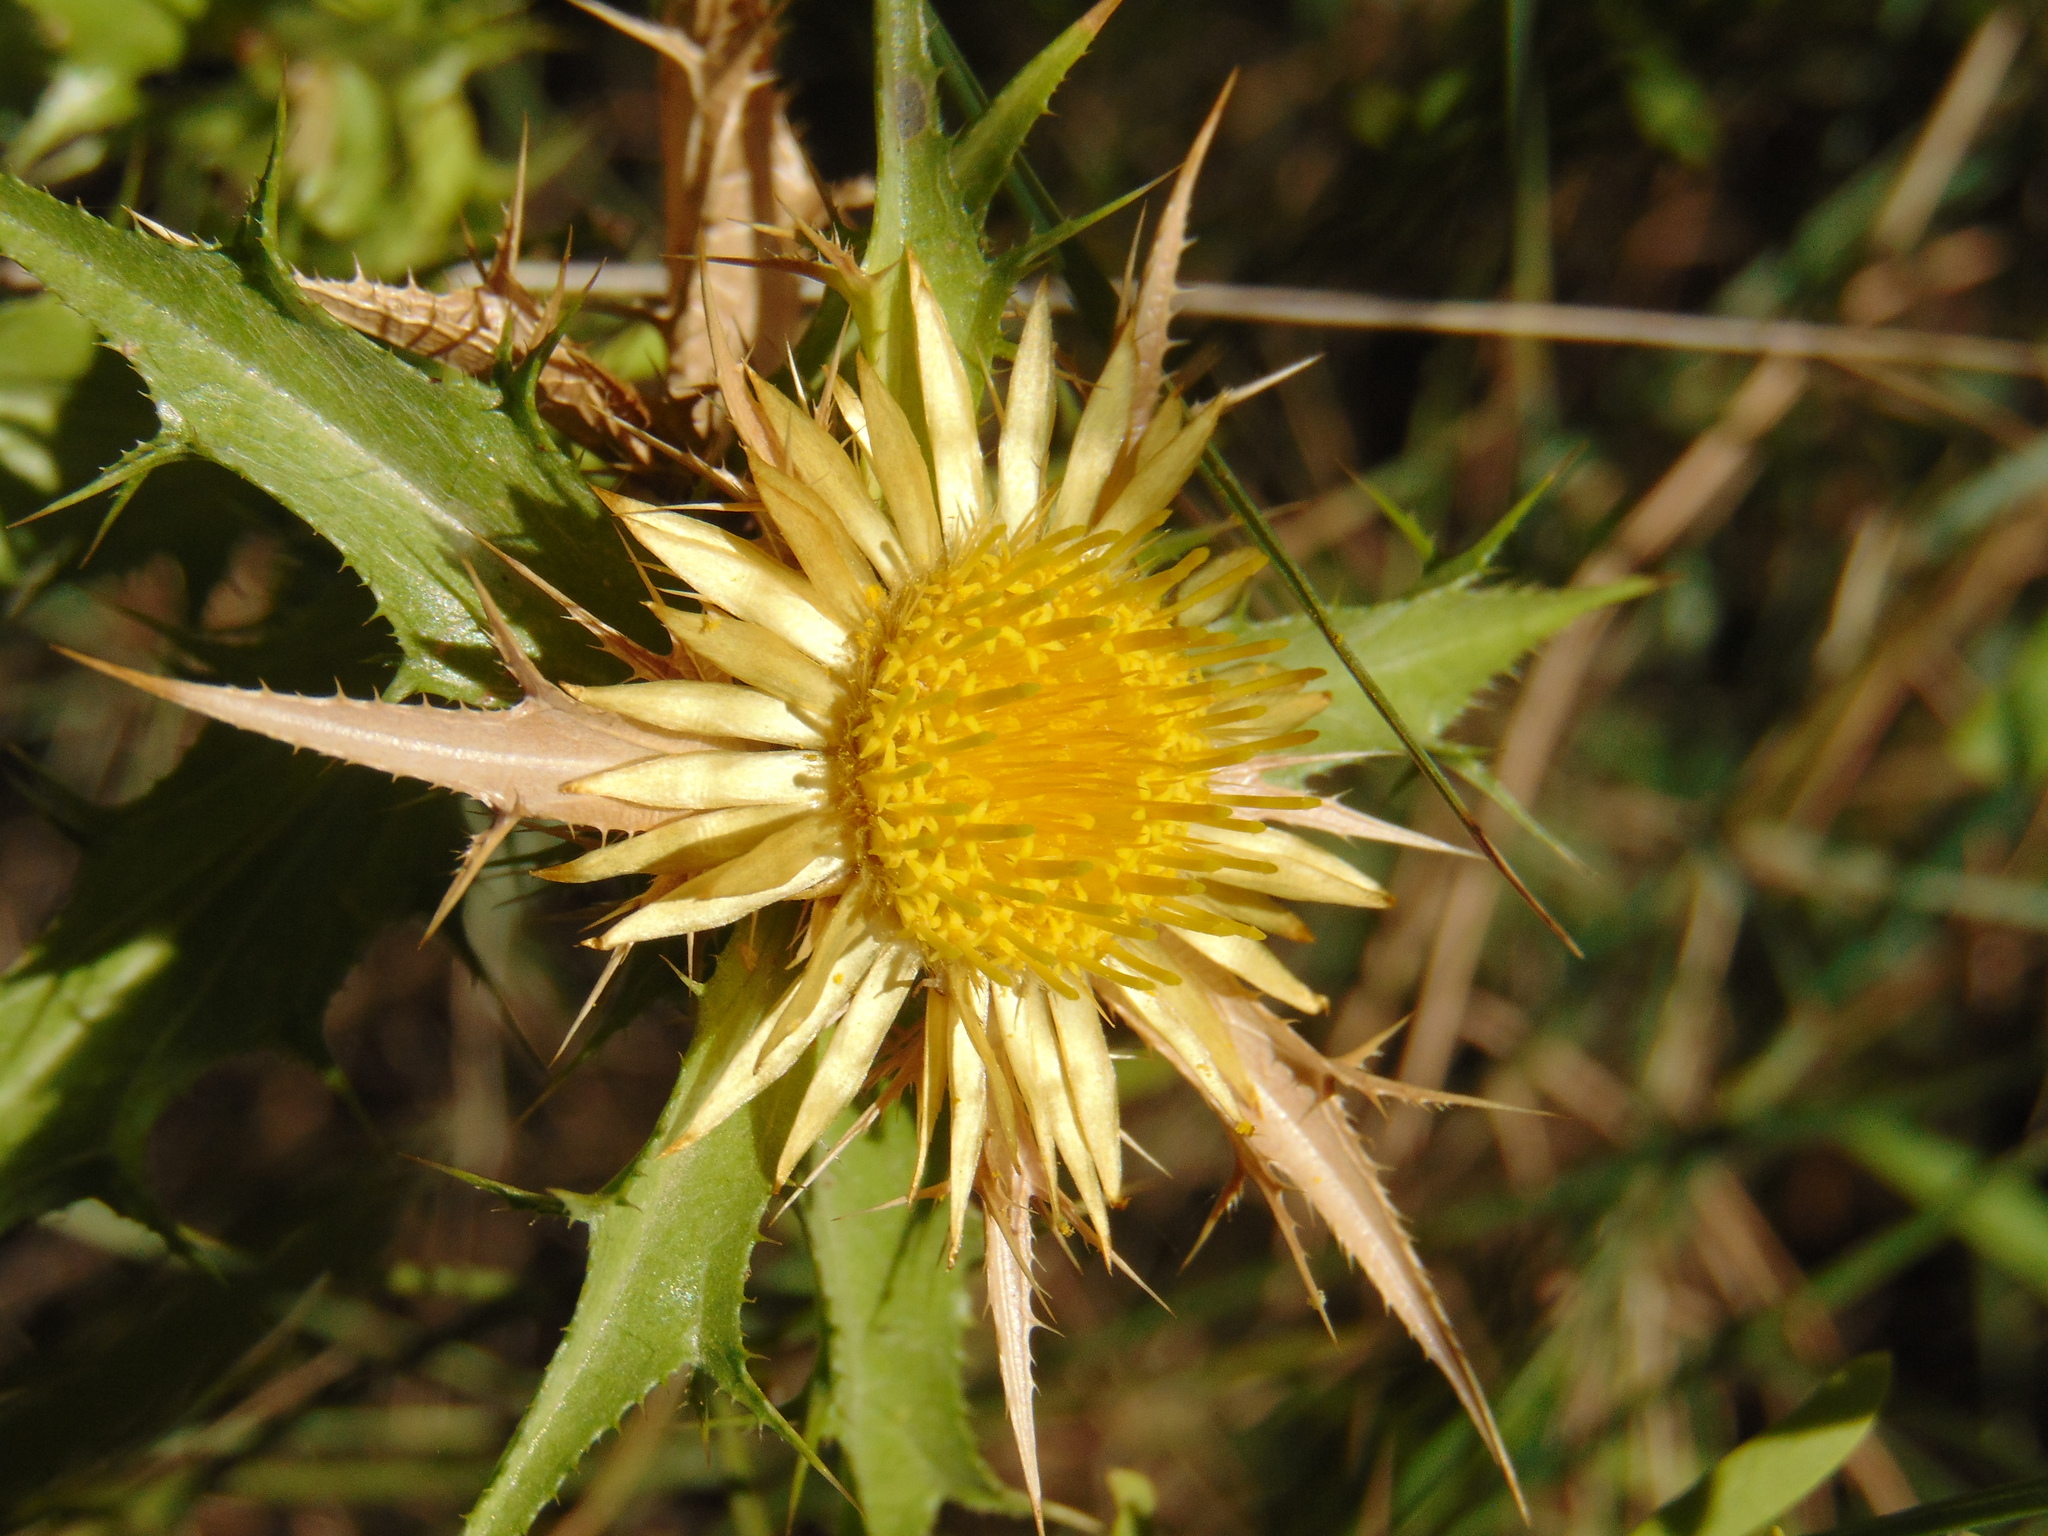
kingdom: Plantae
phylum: Tracheophyta
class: Magnoliopsida
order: Asterales
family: Asteraceae
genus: Carlina
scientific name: Carlina corymbosa
